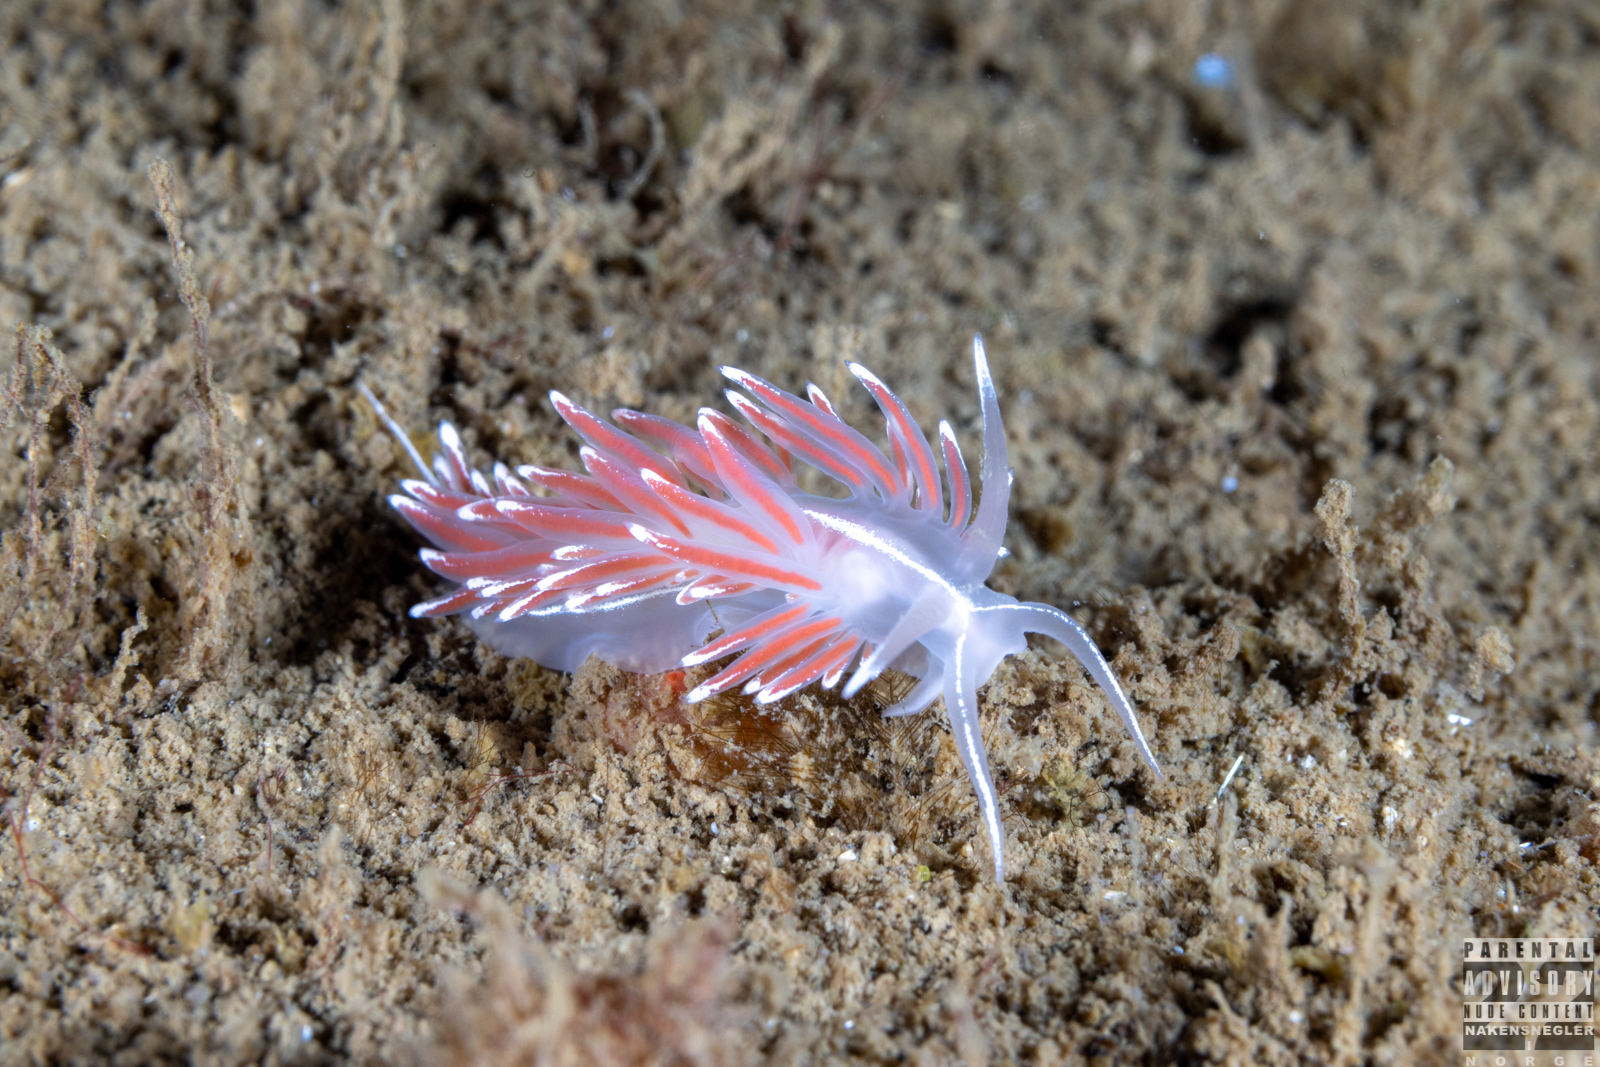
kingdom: Animalia
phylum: Mollusca
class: Gastropoda
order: Nudibranchia
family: Coryphellidae
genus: Coryphella
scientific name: Coryphella lineata
